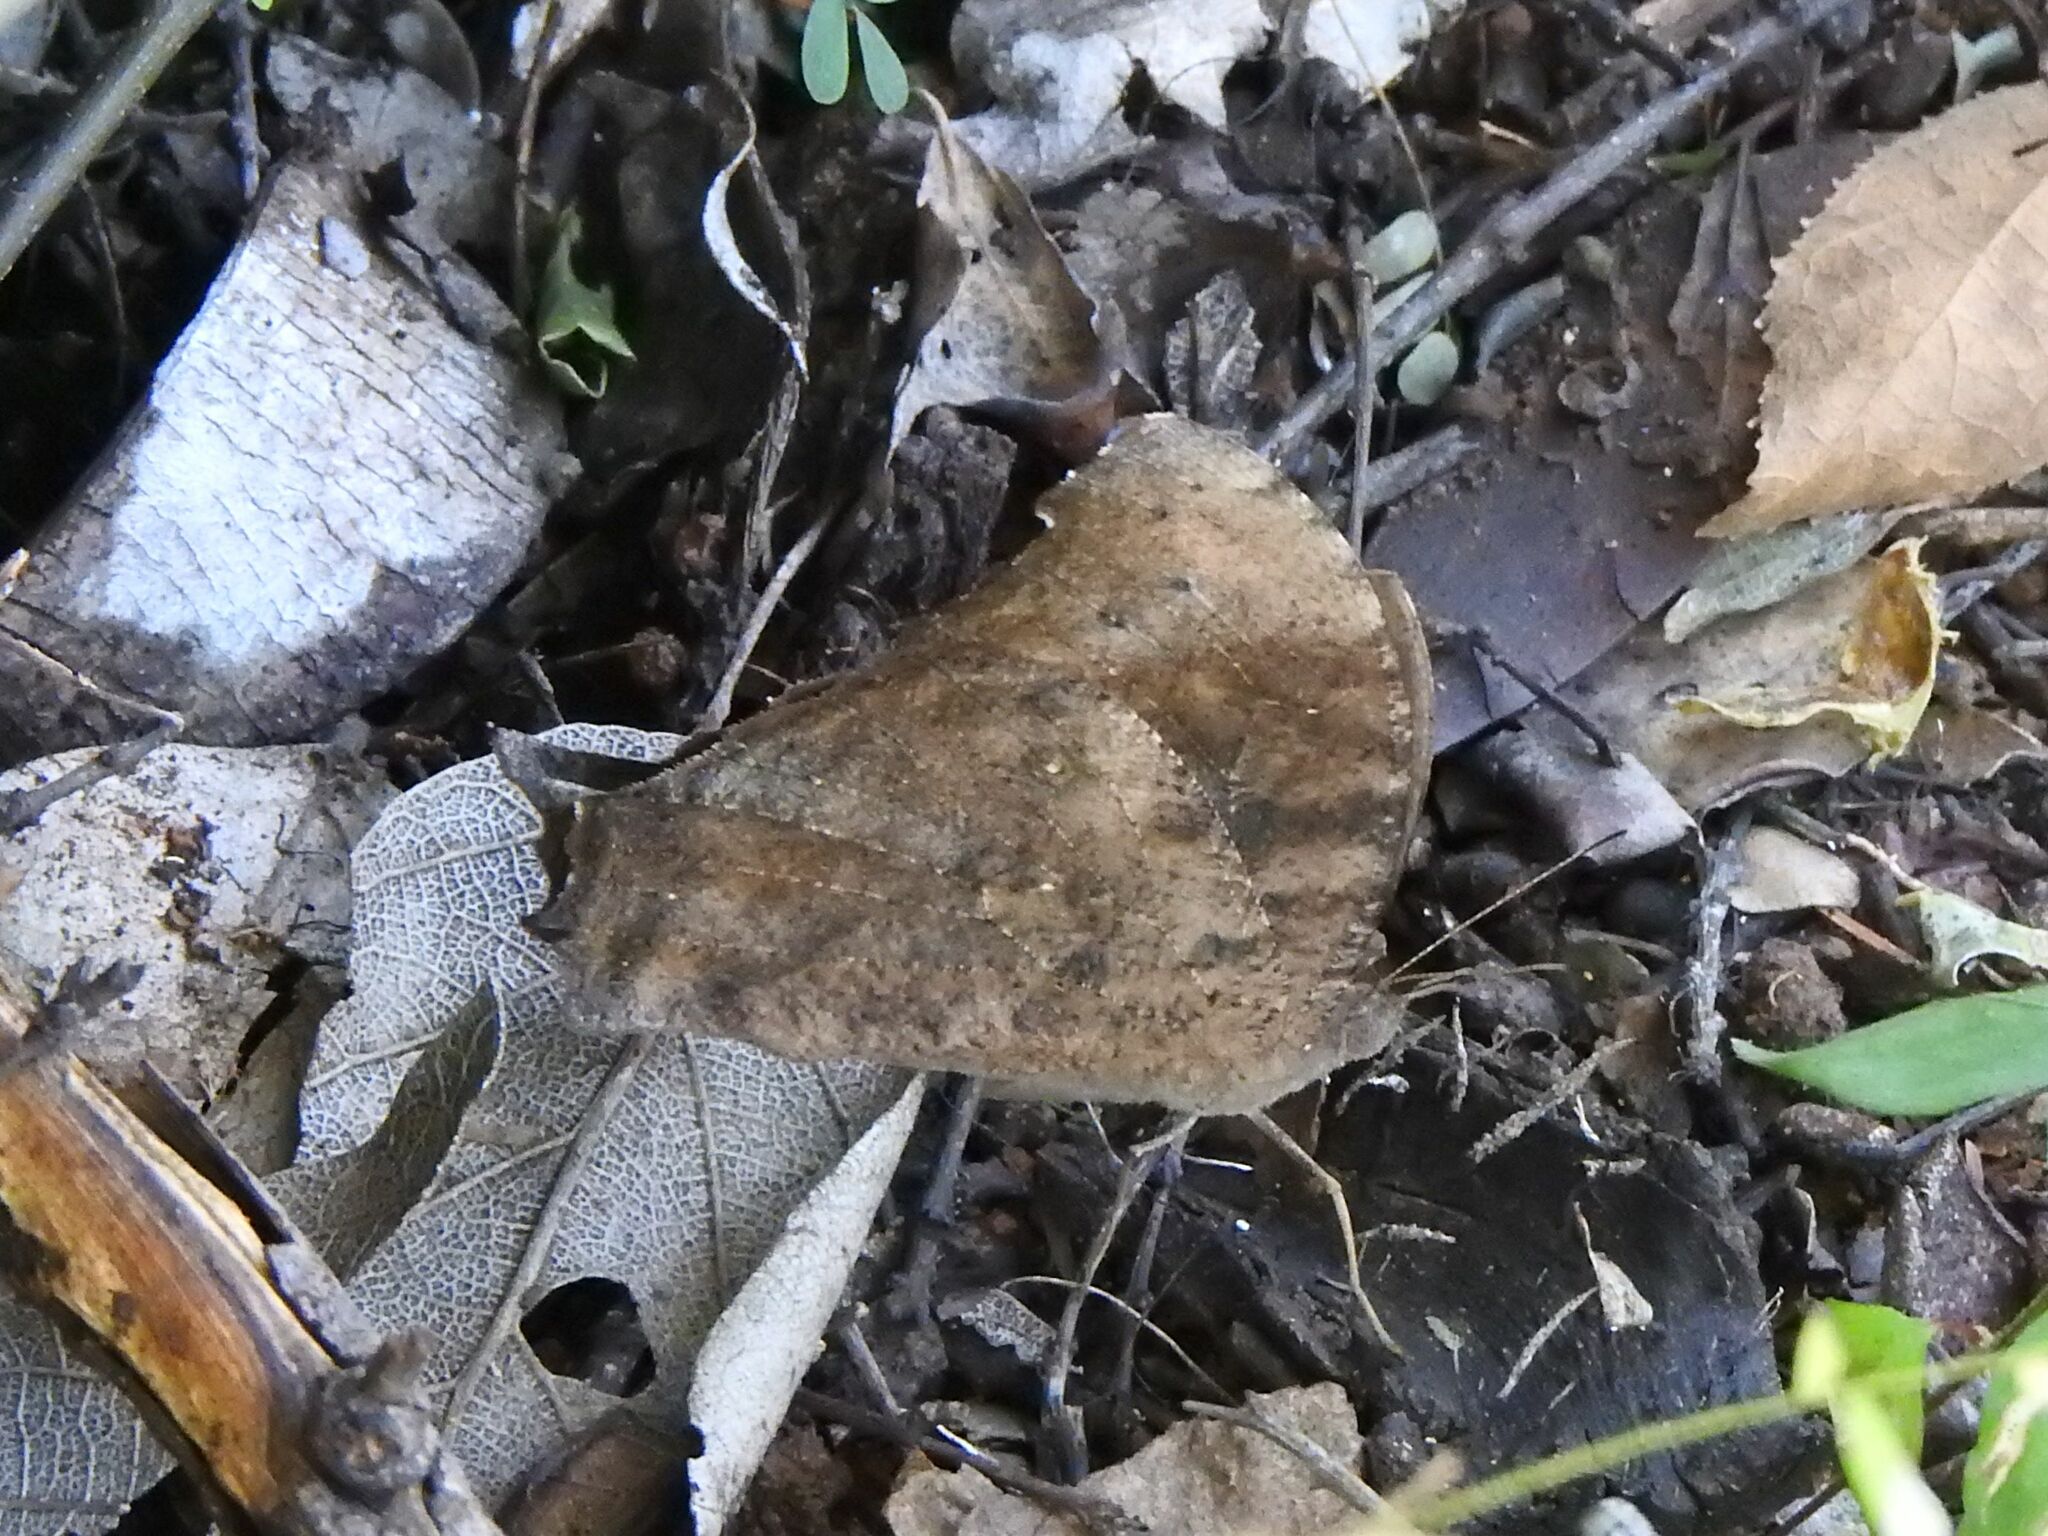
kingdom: Animalia
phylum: Arthropoda
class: Insecta
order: Lepidoptera
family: Nymphalidae
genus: Melanitis
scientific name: Melanitis leda
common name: Twilight brown
